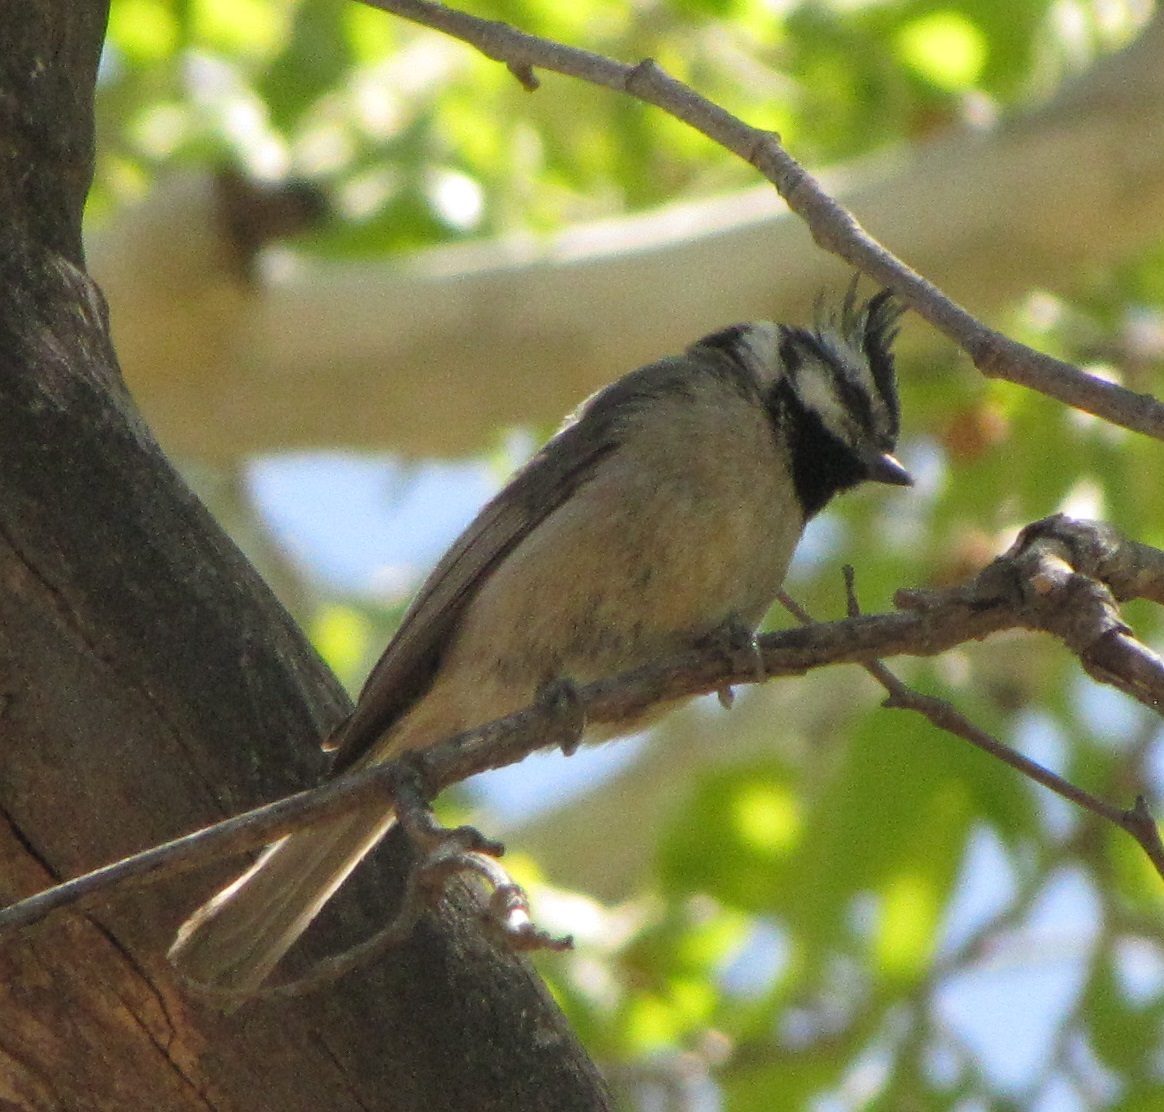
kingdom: Animalia
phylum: Chordata
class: Aves
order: Passeriformes
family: Paridae
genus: Baeolophus
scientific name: Baeolophus wollweberi
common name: Bridled titmouse
